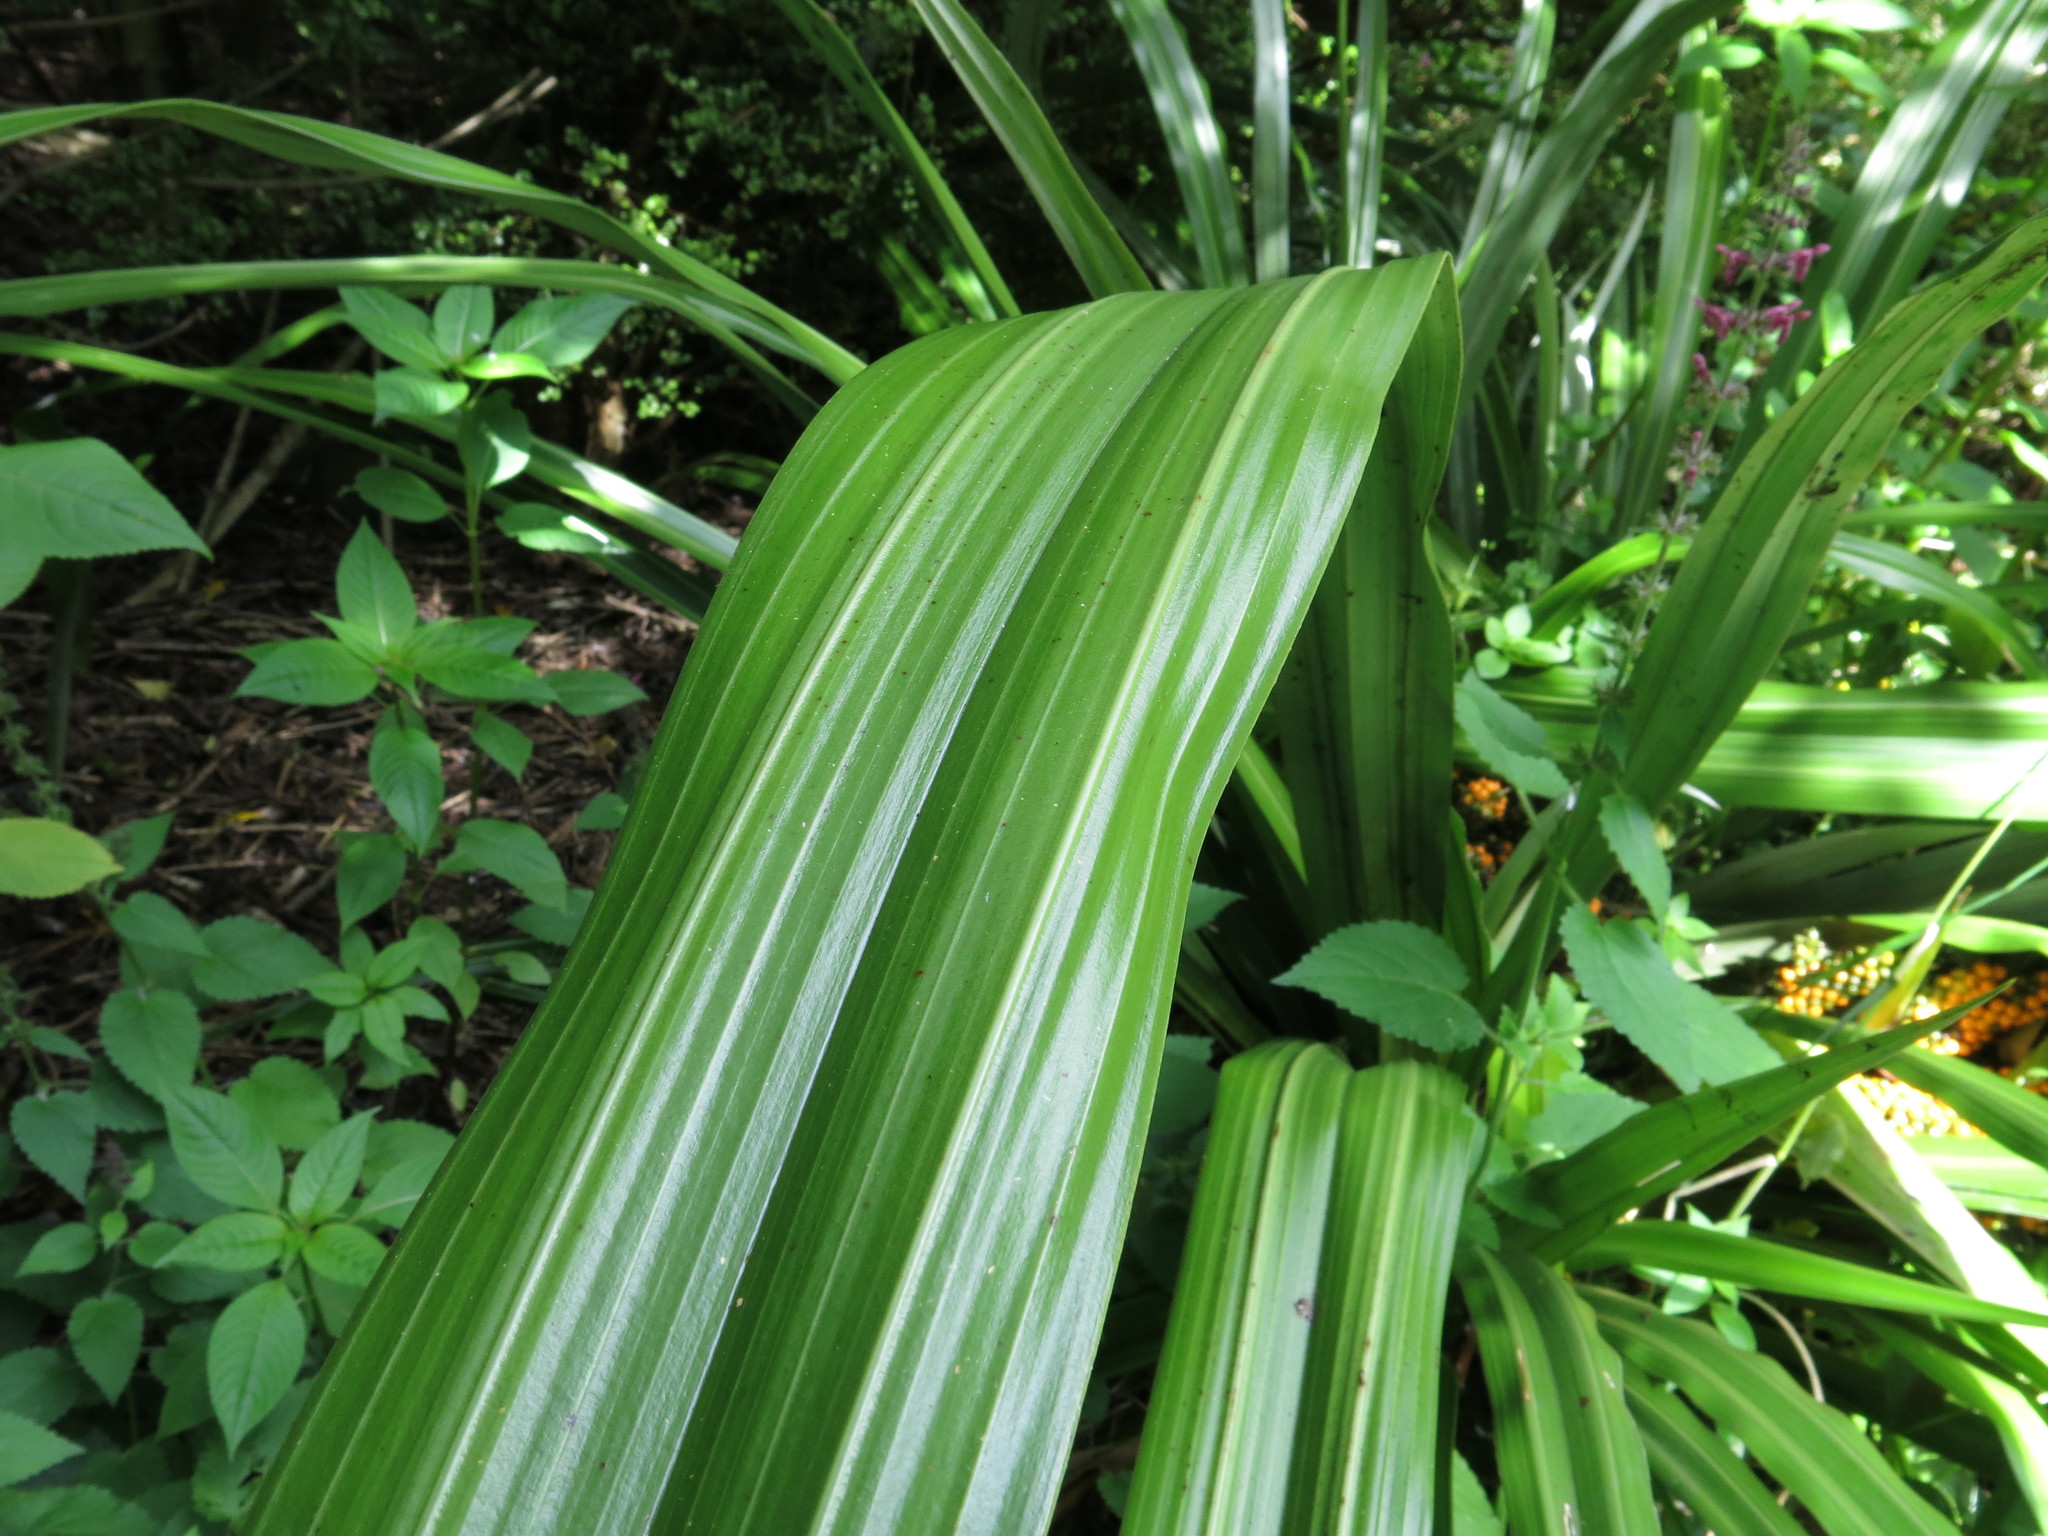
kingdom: Plantae
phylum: Tracheophyta
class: Liliopsida
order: Asparagales
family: Asteliaceae
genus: Astelia
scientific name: Astelia fragrans
